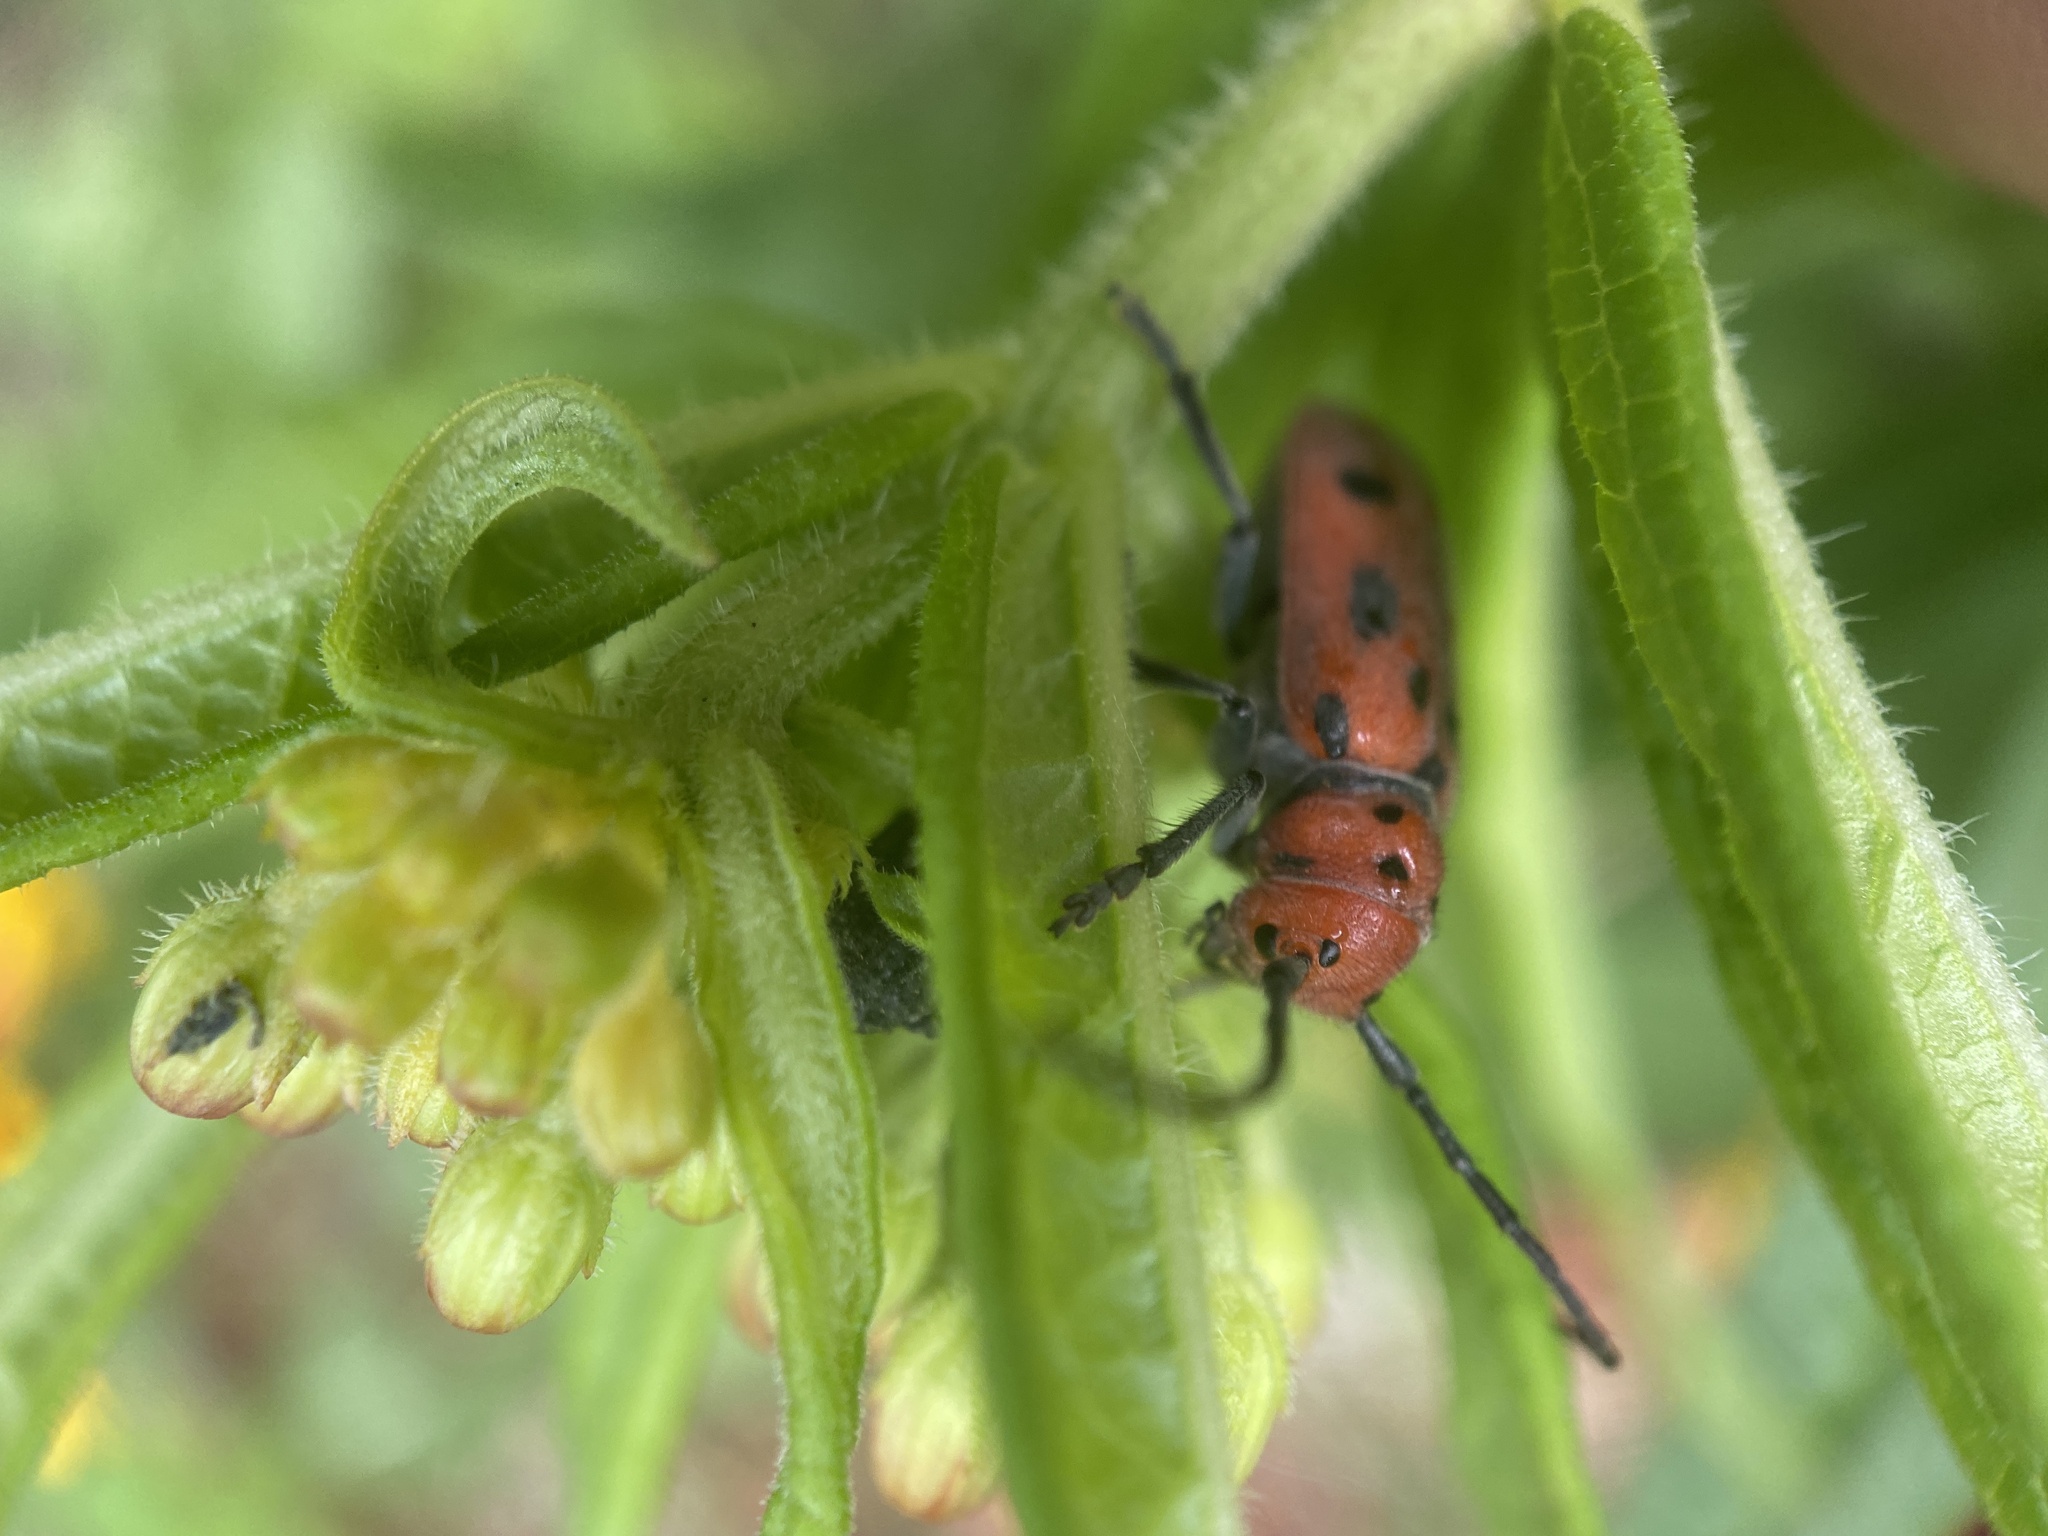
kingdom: Animalia
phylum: Arthropoda
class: Insecta
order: Coleoptera
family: Cerambycidae
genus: Tetraopes
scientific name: Tetraopes tetrophthalmus
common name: Red milkweed beetle
